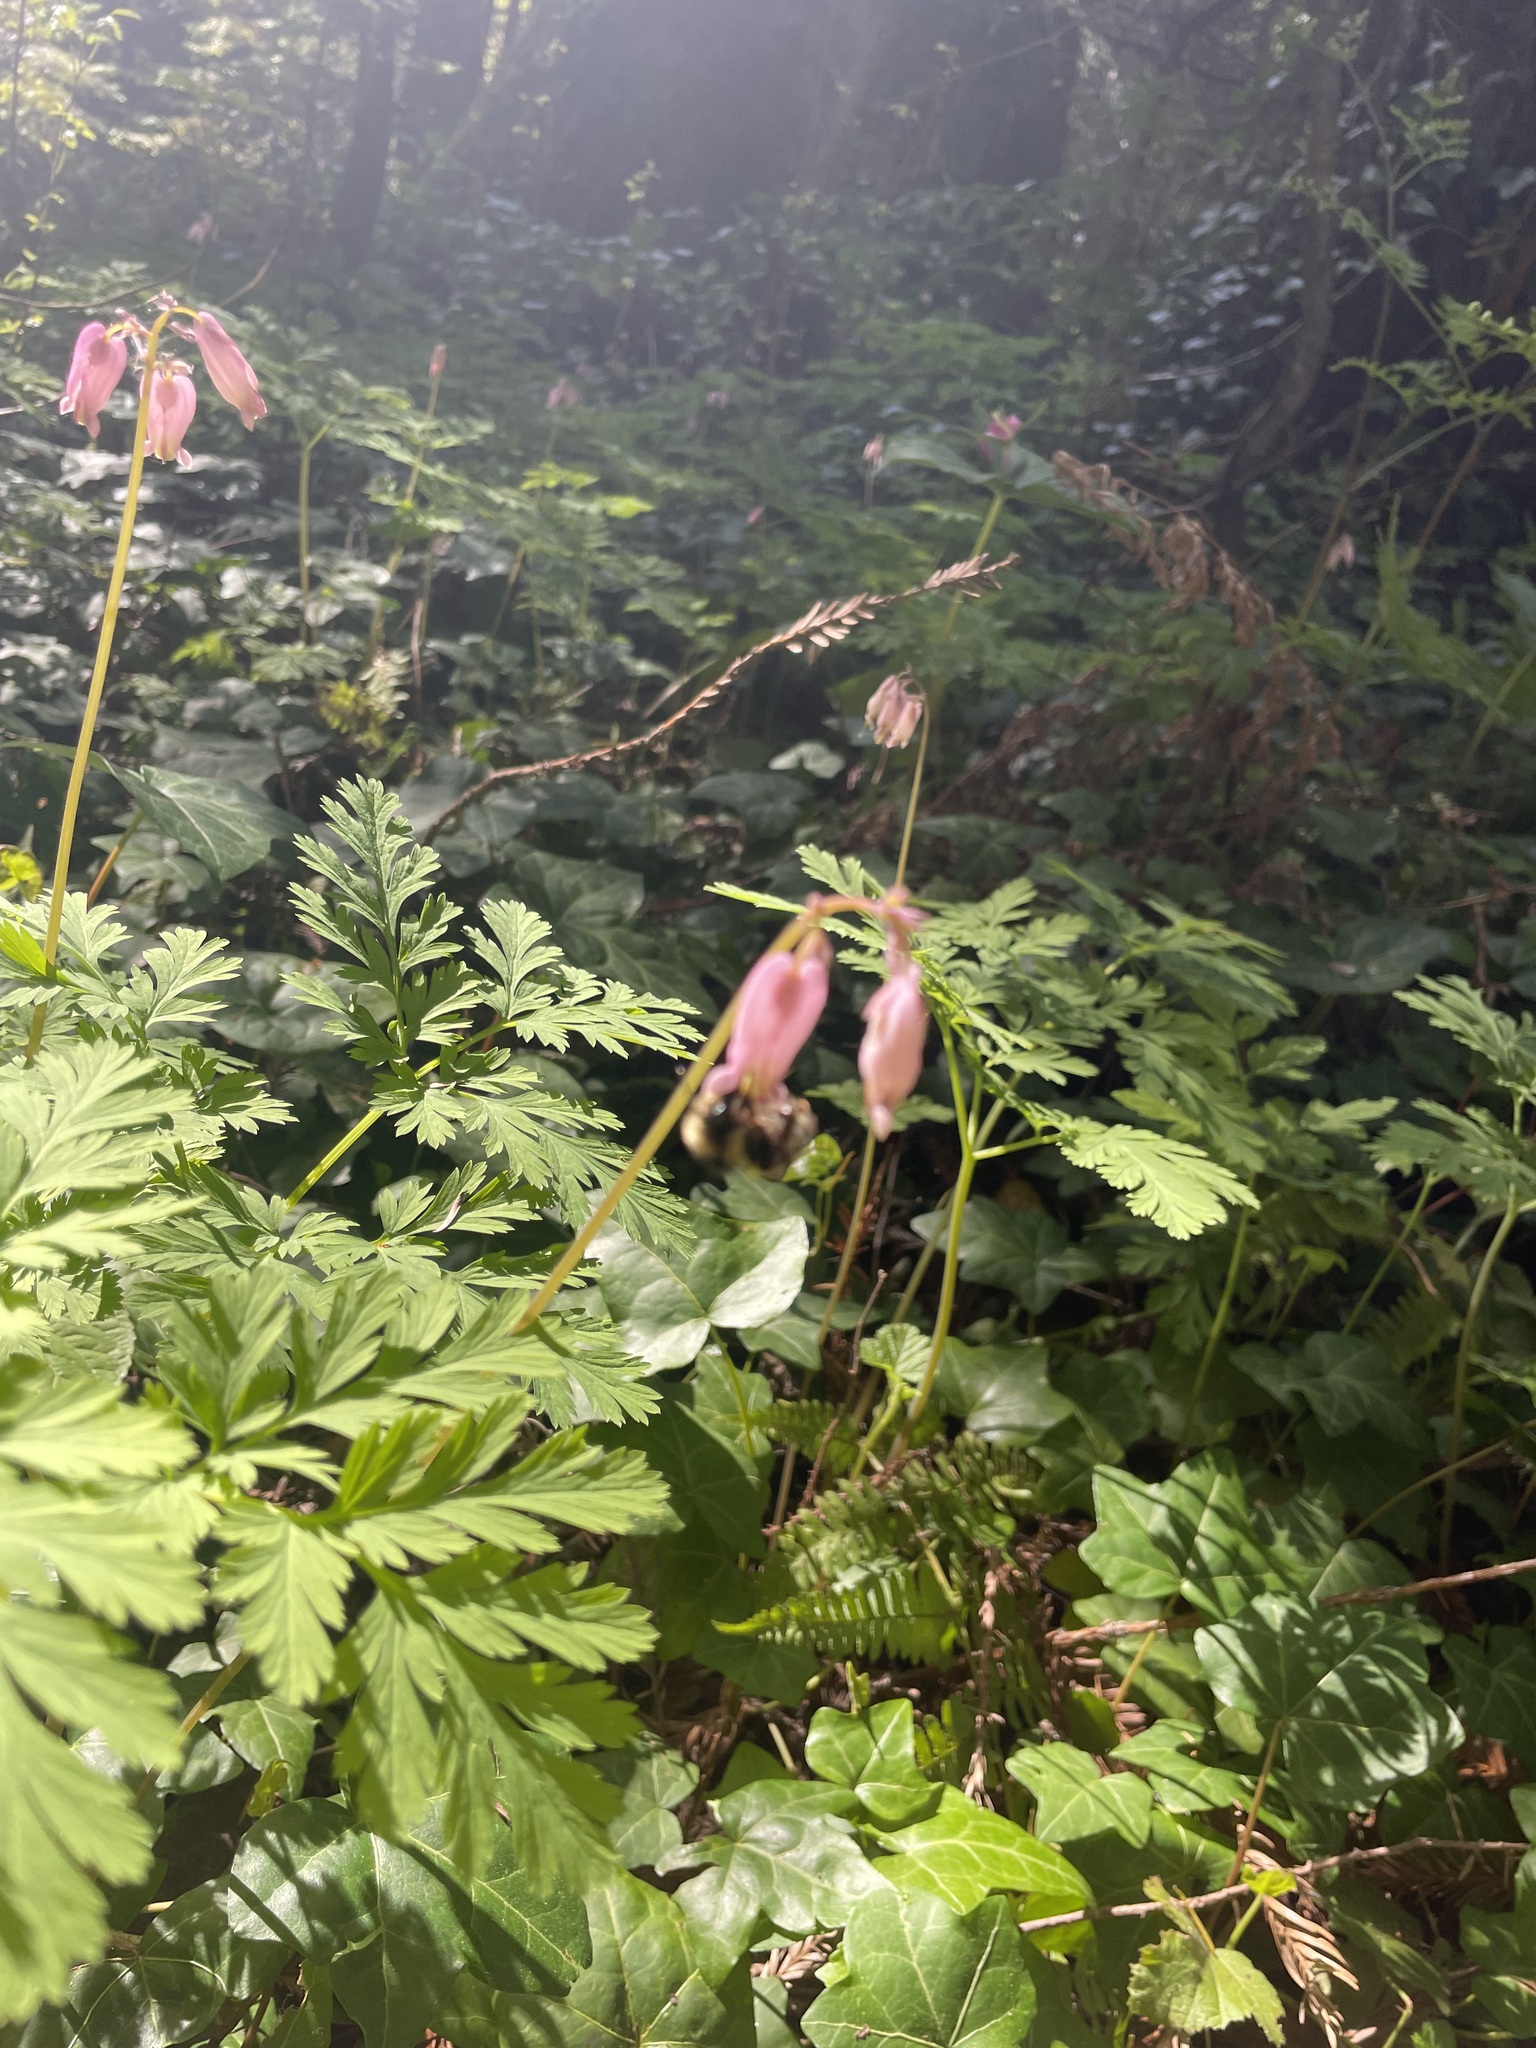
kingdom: Plantae
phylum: Tracheophyta
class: Magnoliopsida
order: Ranunculales
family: Papaveraceae
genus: Dicentra
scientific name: Dicentra formosa
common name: Bleeding-heart
